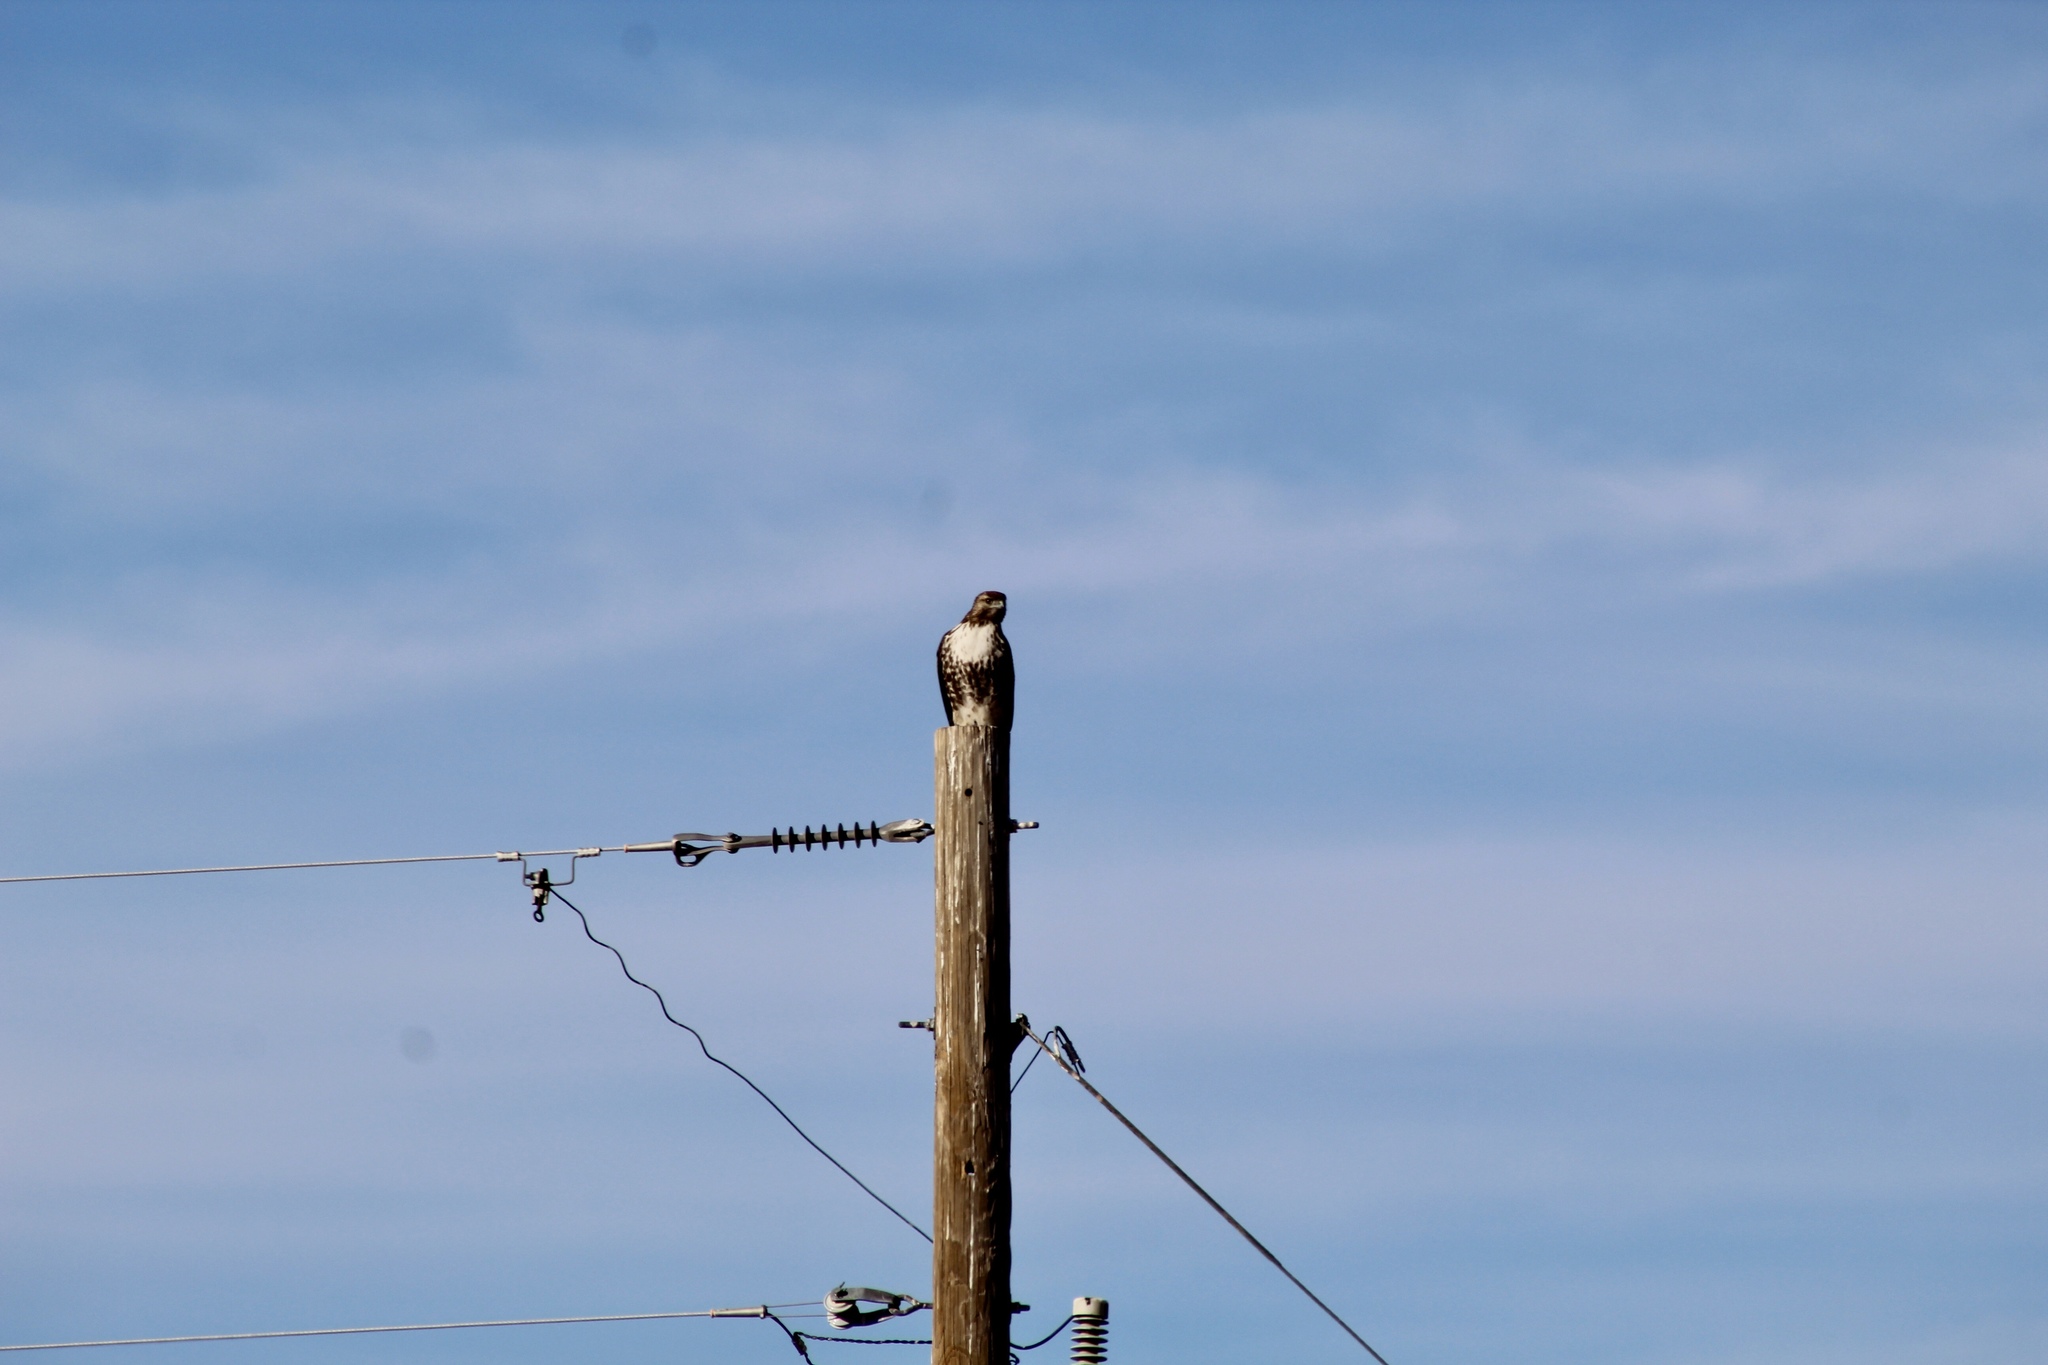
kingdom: Animalia
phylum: Chordata
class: Aves
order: Accipitriformes
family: Accipitridae
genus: Buteo
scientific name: Buteo jamaicensis
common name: Red-tailed hawk
